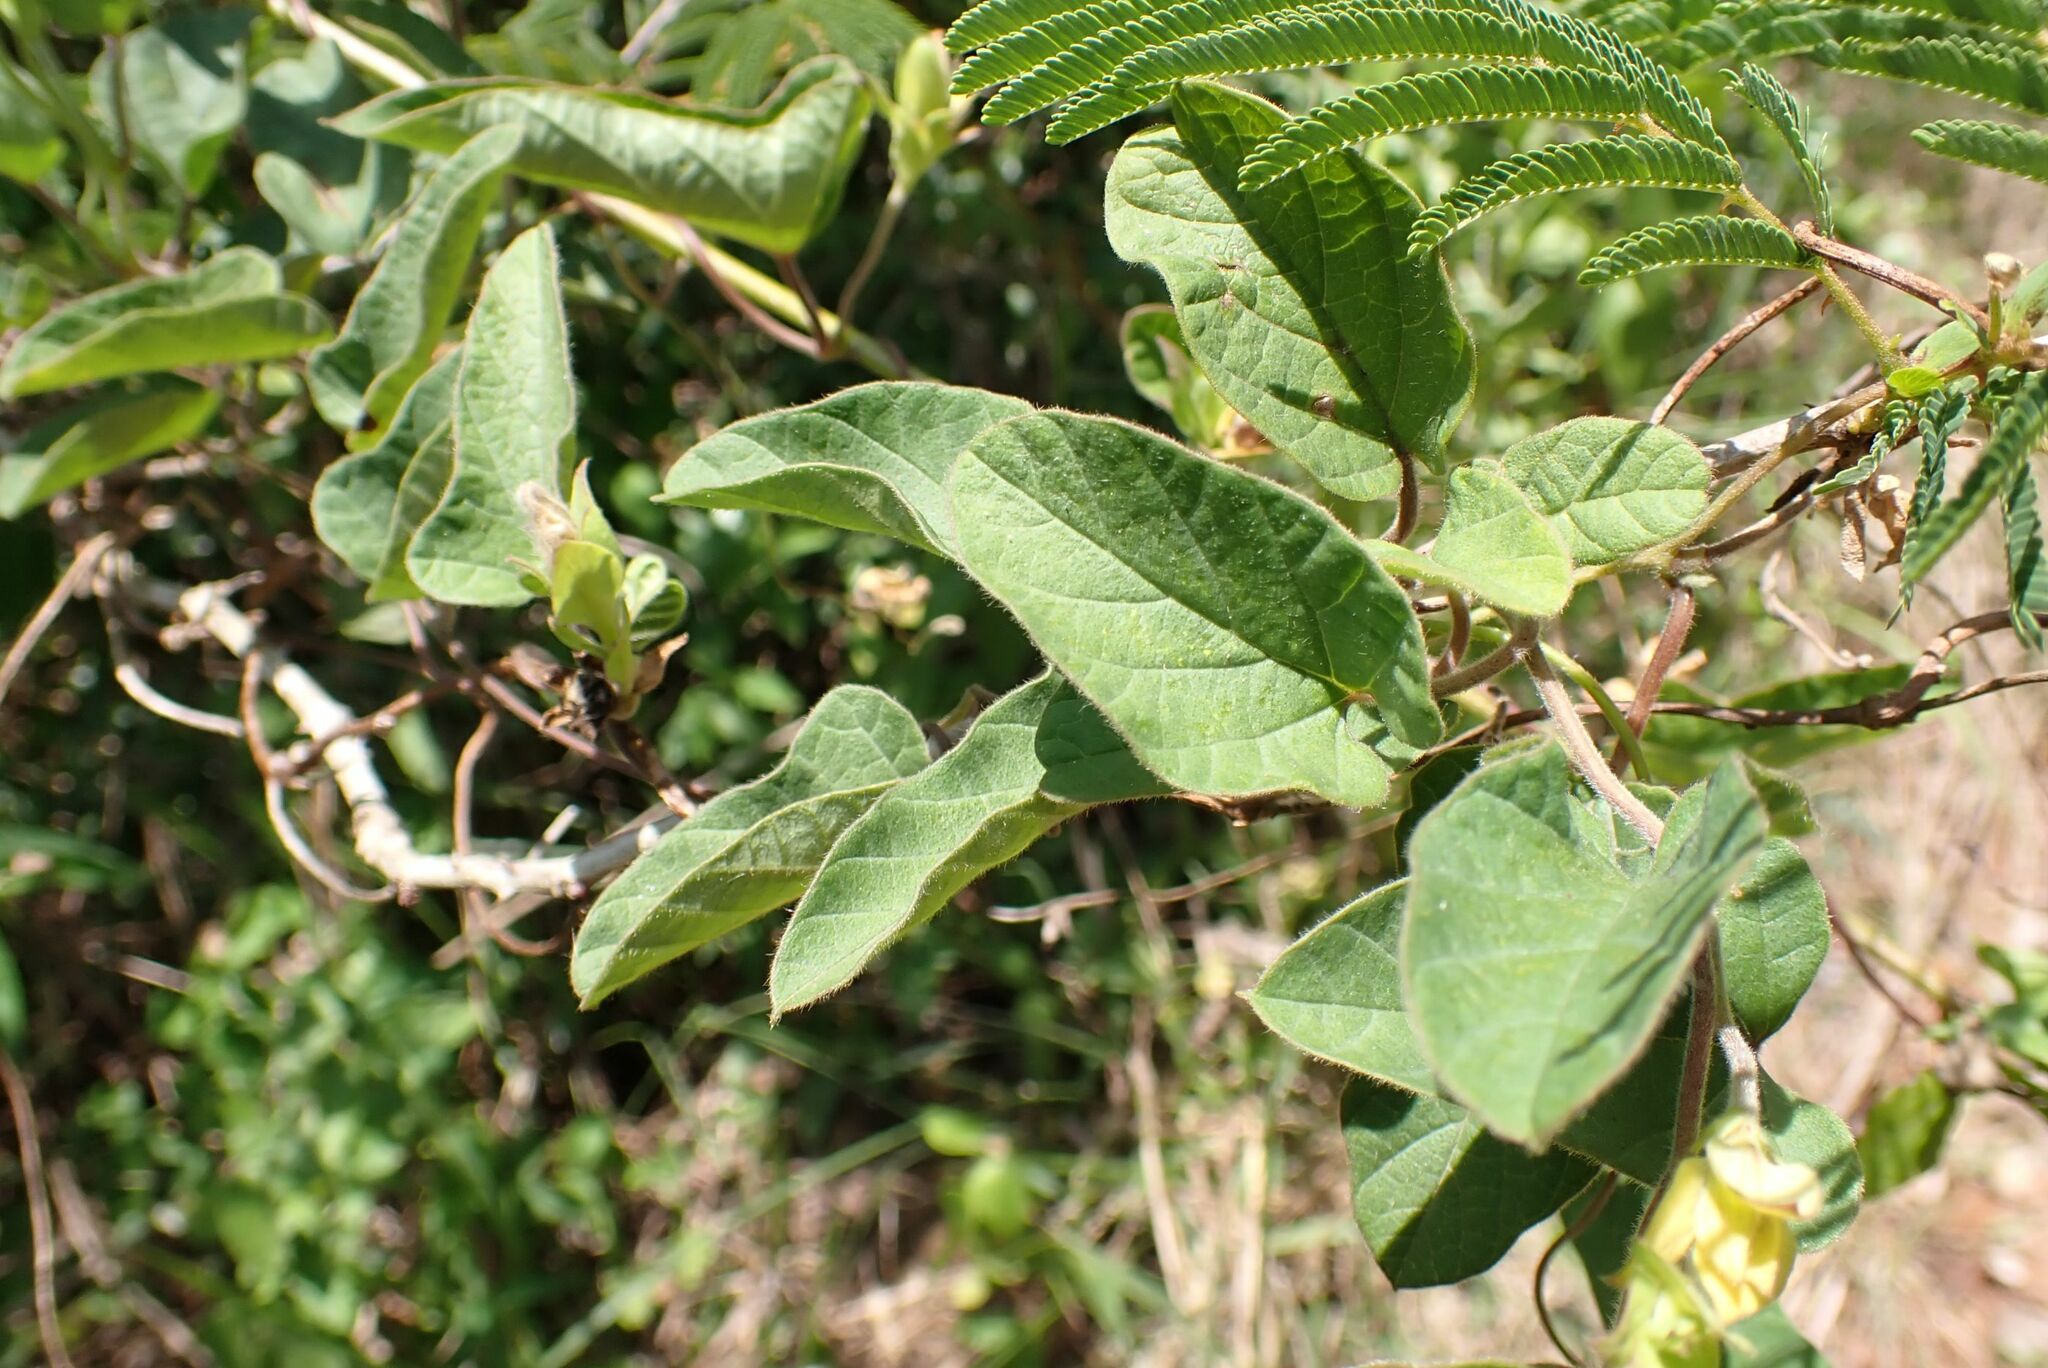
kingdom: Plantae
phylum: Tracheophyta
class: Magnoliopsida
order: Solanales
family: Convolvulaceae
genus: Hewittia
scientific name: Hewittia malabarica
